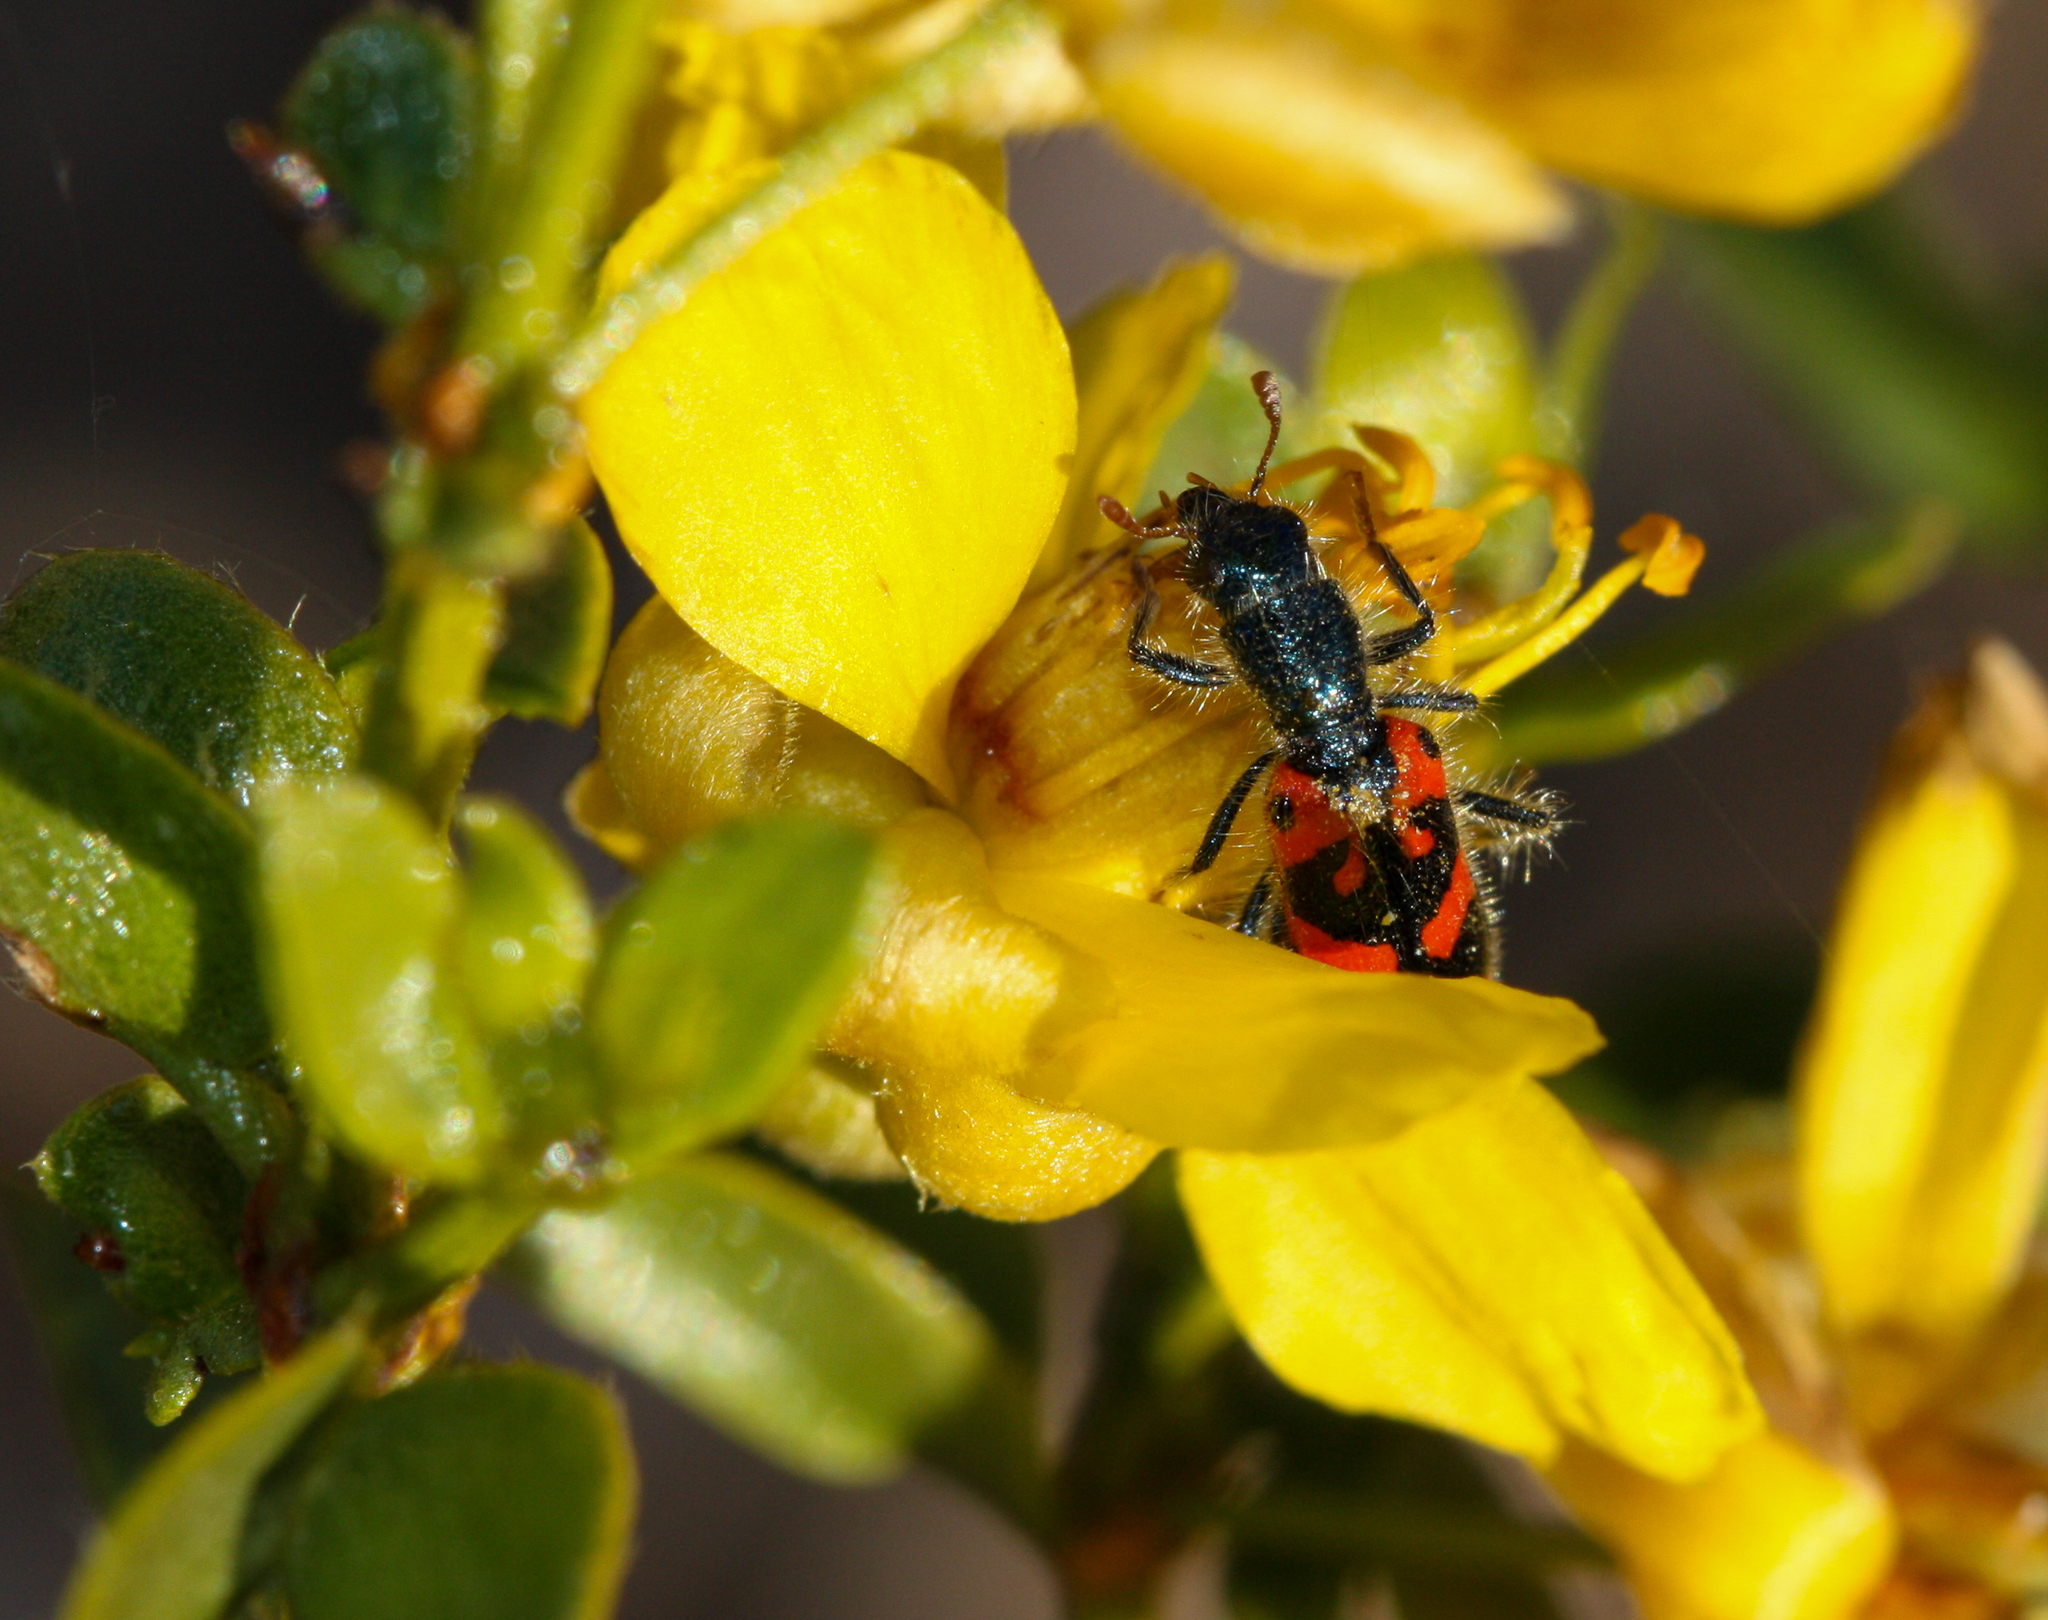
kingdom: Animalia
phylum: Arthropoda
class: Insecta
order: Coleoptera
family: Cleridae
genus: Trichodes
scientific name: Trichodes ornatus
